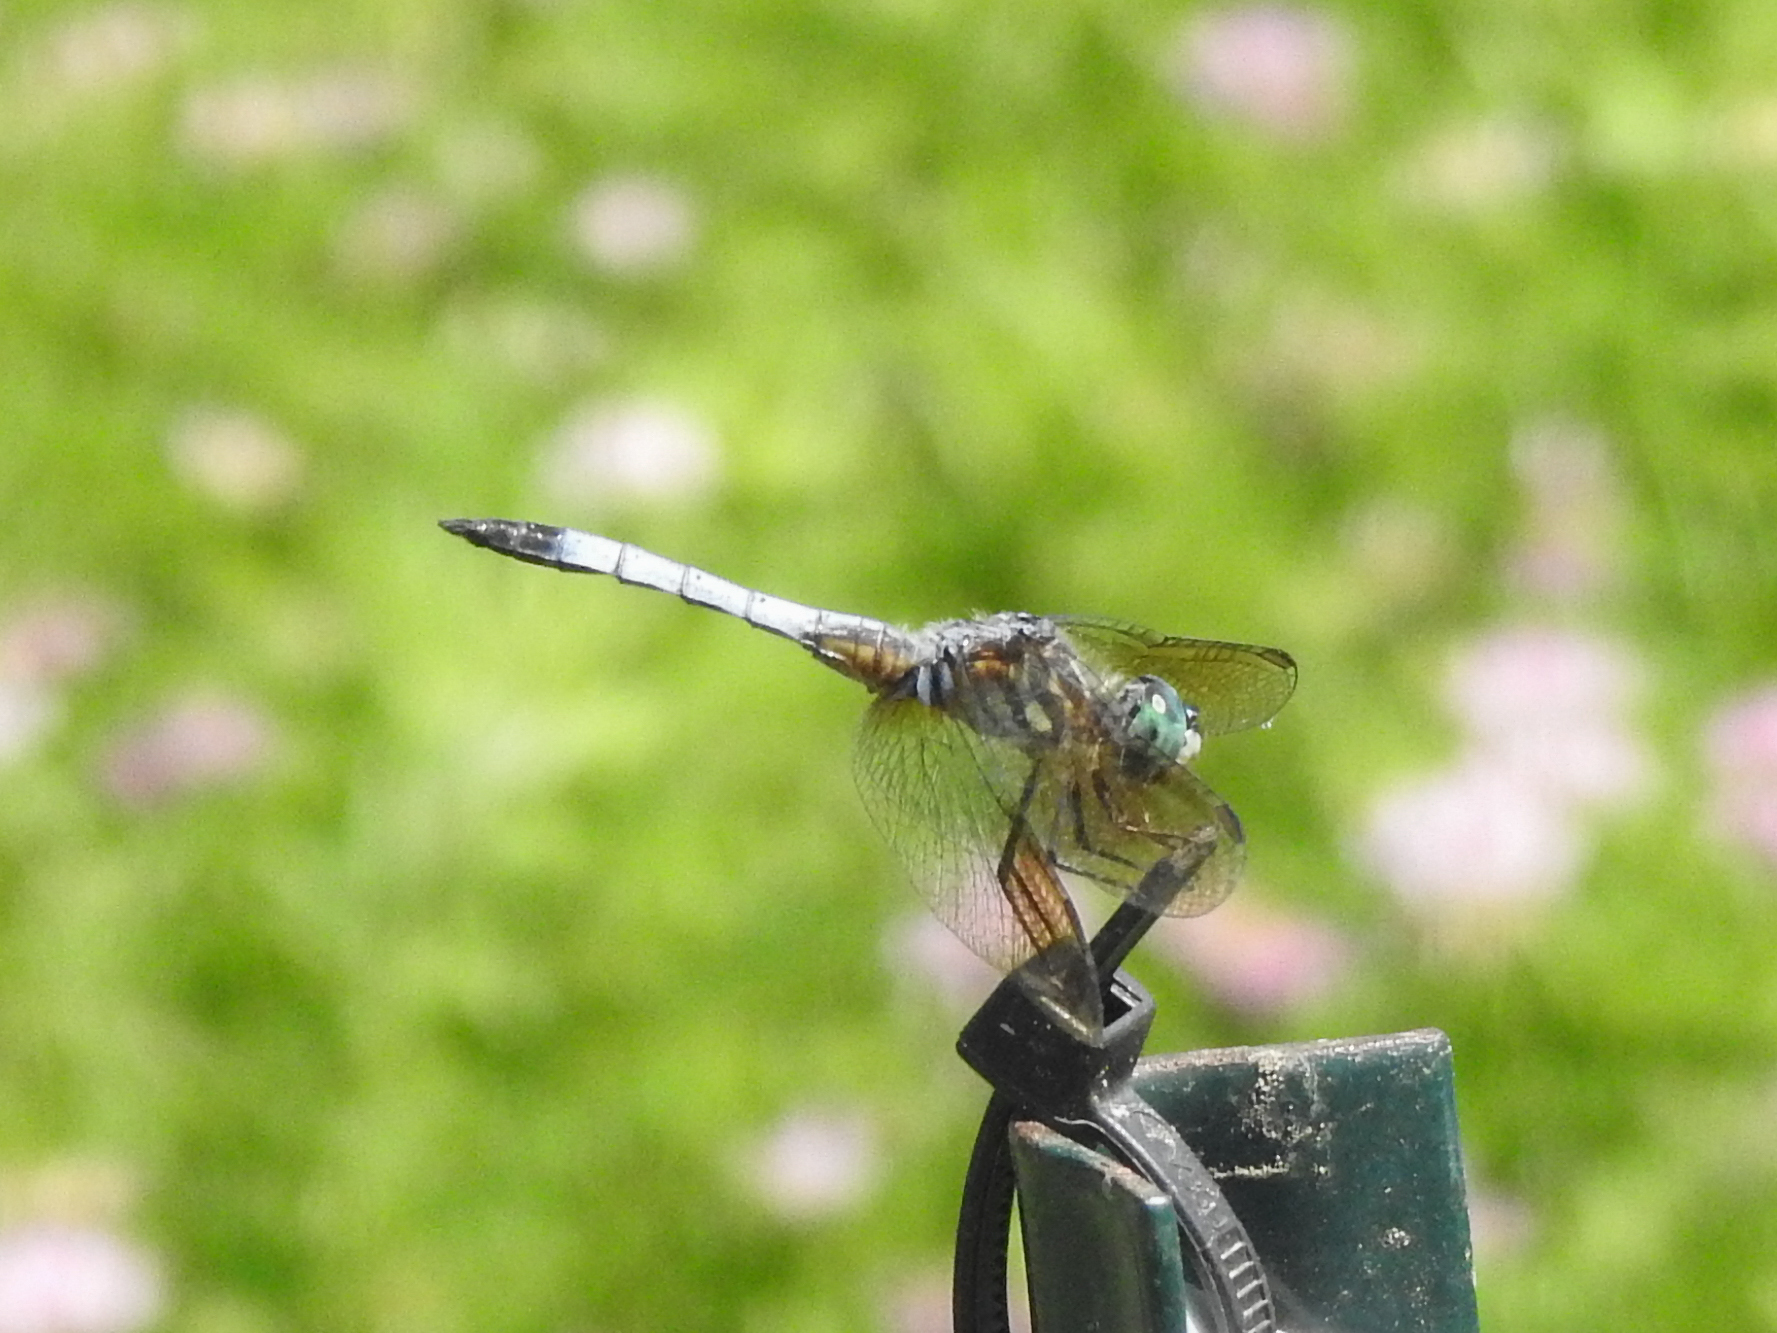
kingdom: Animalia
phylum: Arthropoda
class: Insecta
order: Odonata
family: Libellulidae
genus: Pachydiplax
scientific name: Pachydiplax longipennis
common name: Blue dasher
